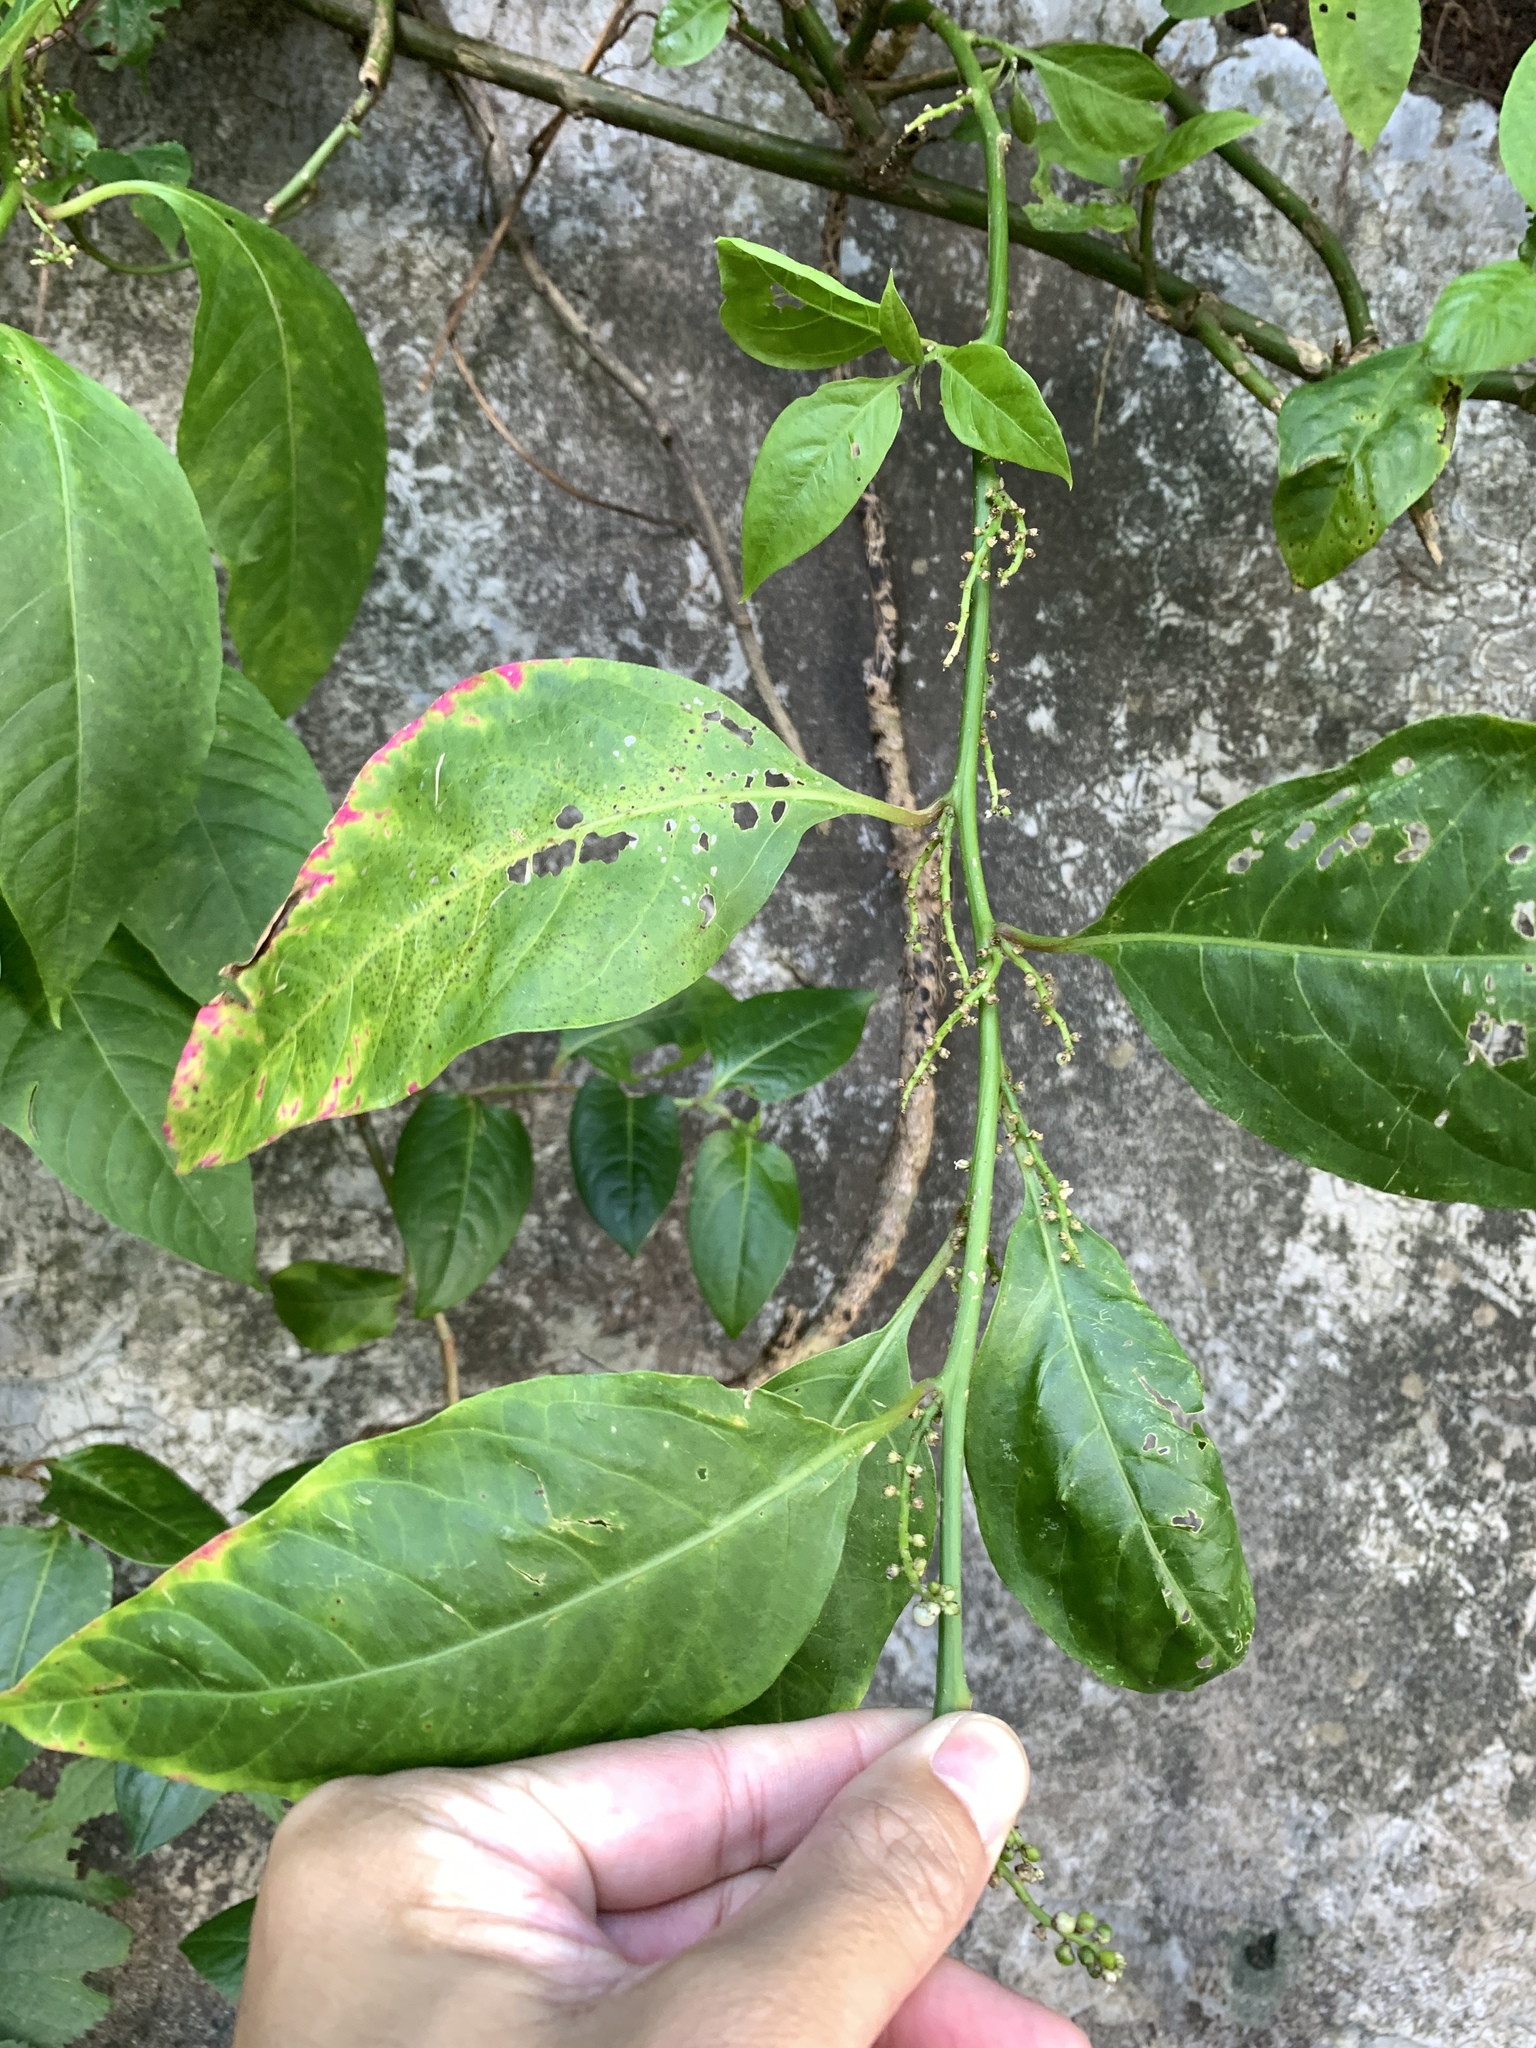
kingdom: Plantae
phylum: Tracheophyta
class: Magnoliopsida
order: Caryophyllales
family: Amaranthaceae
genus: Deeringia
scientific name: Deeringia polysperma
